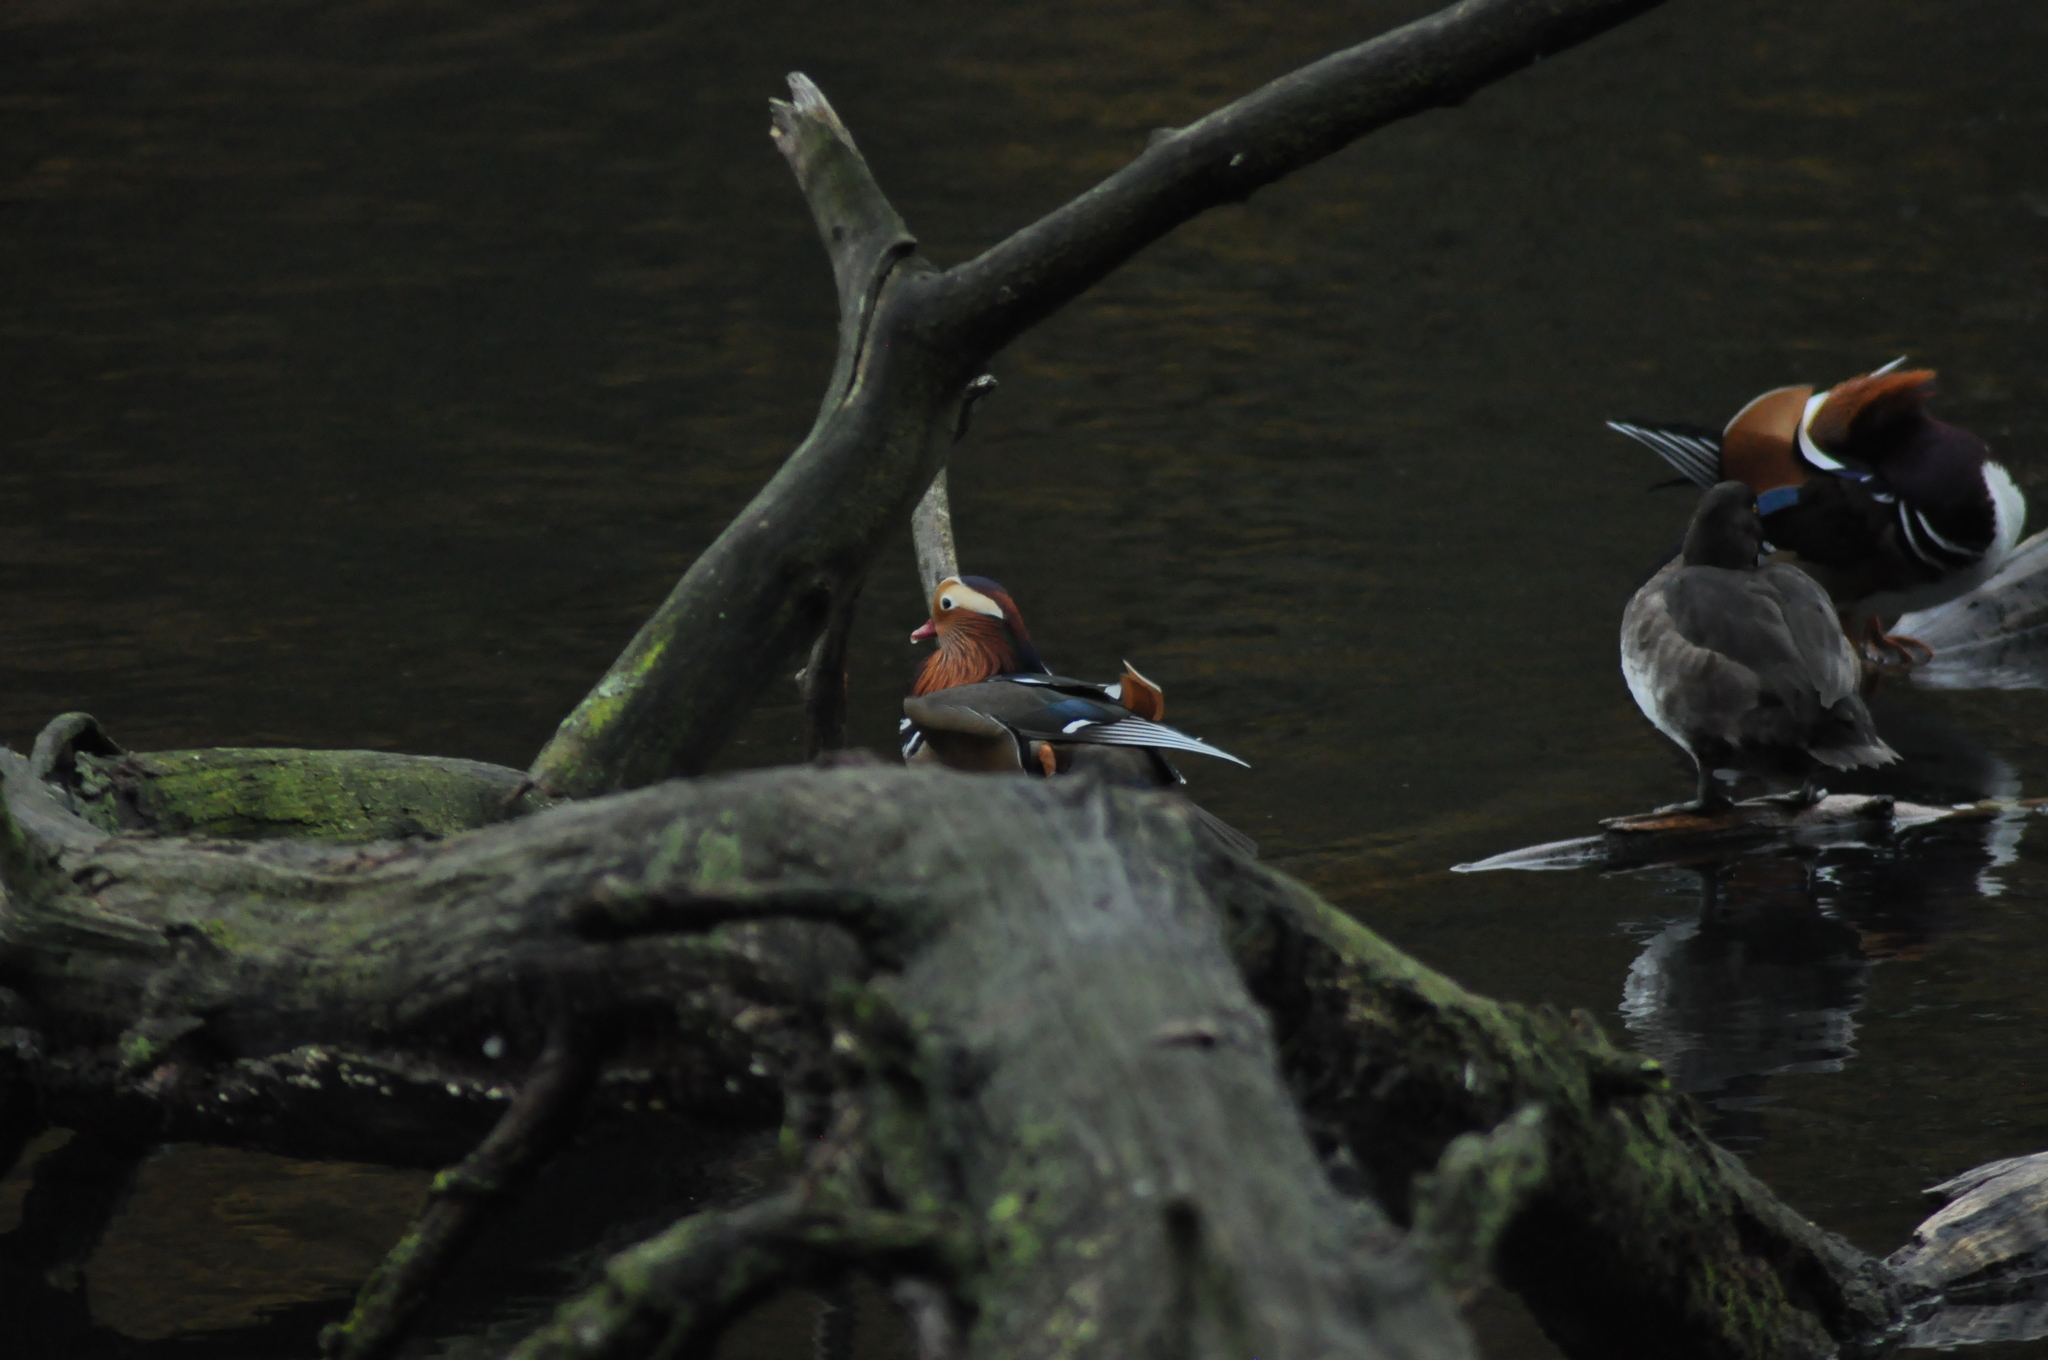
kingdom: Animalia
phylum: Chordata
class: Aves
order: Anseriformes
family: Anatidae
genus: Aix
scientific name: Aix galericulata
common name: Mandarin duck
